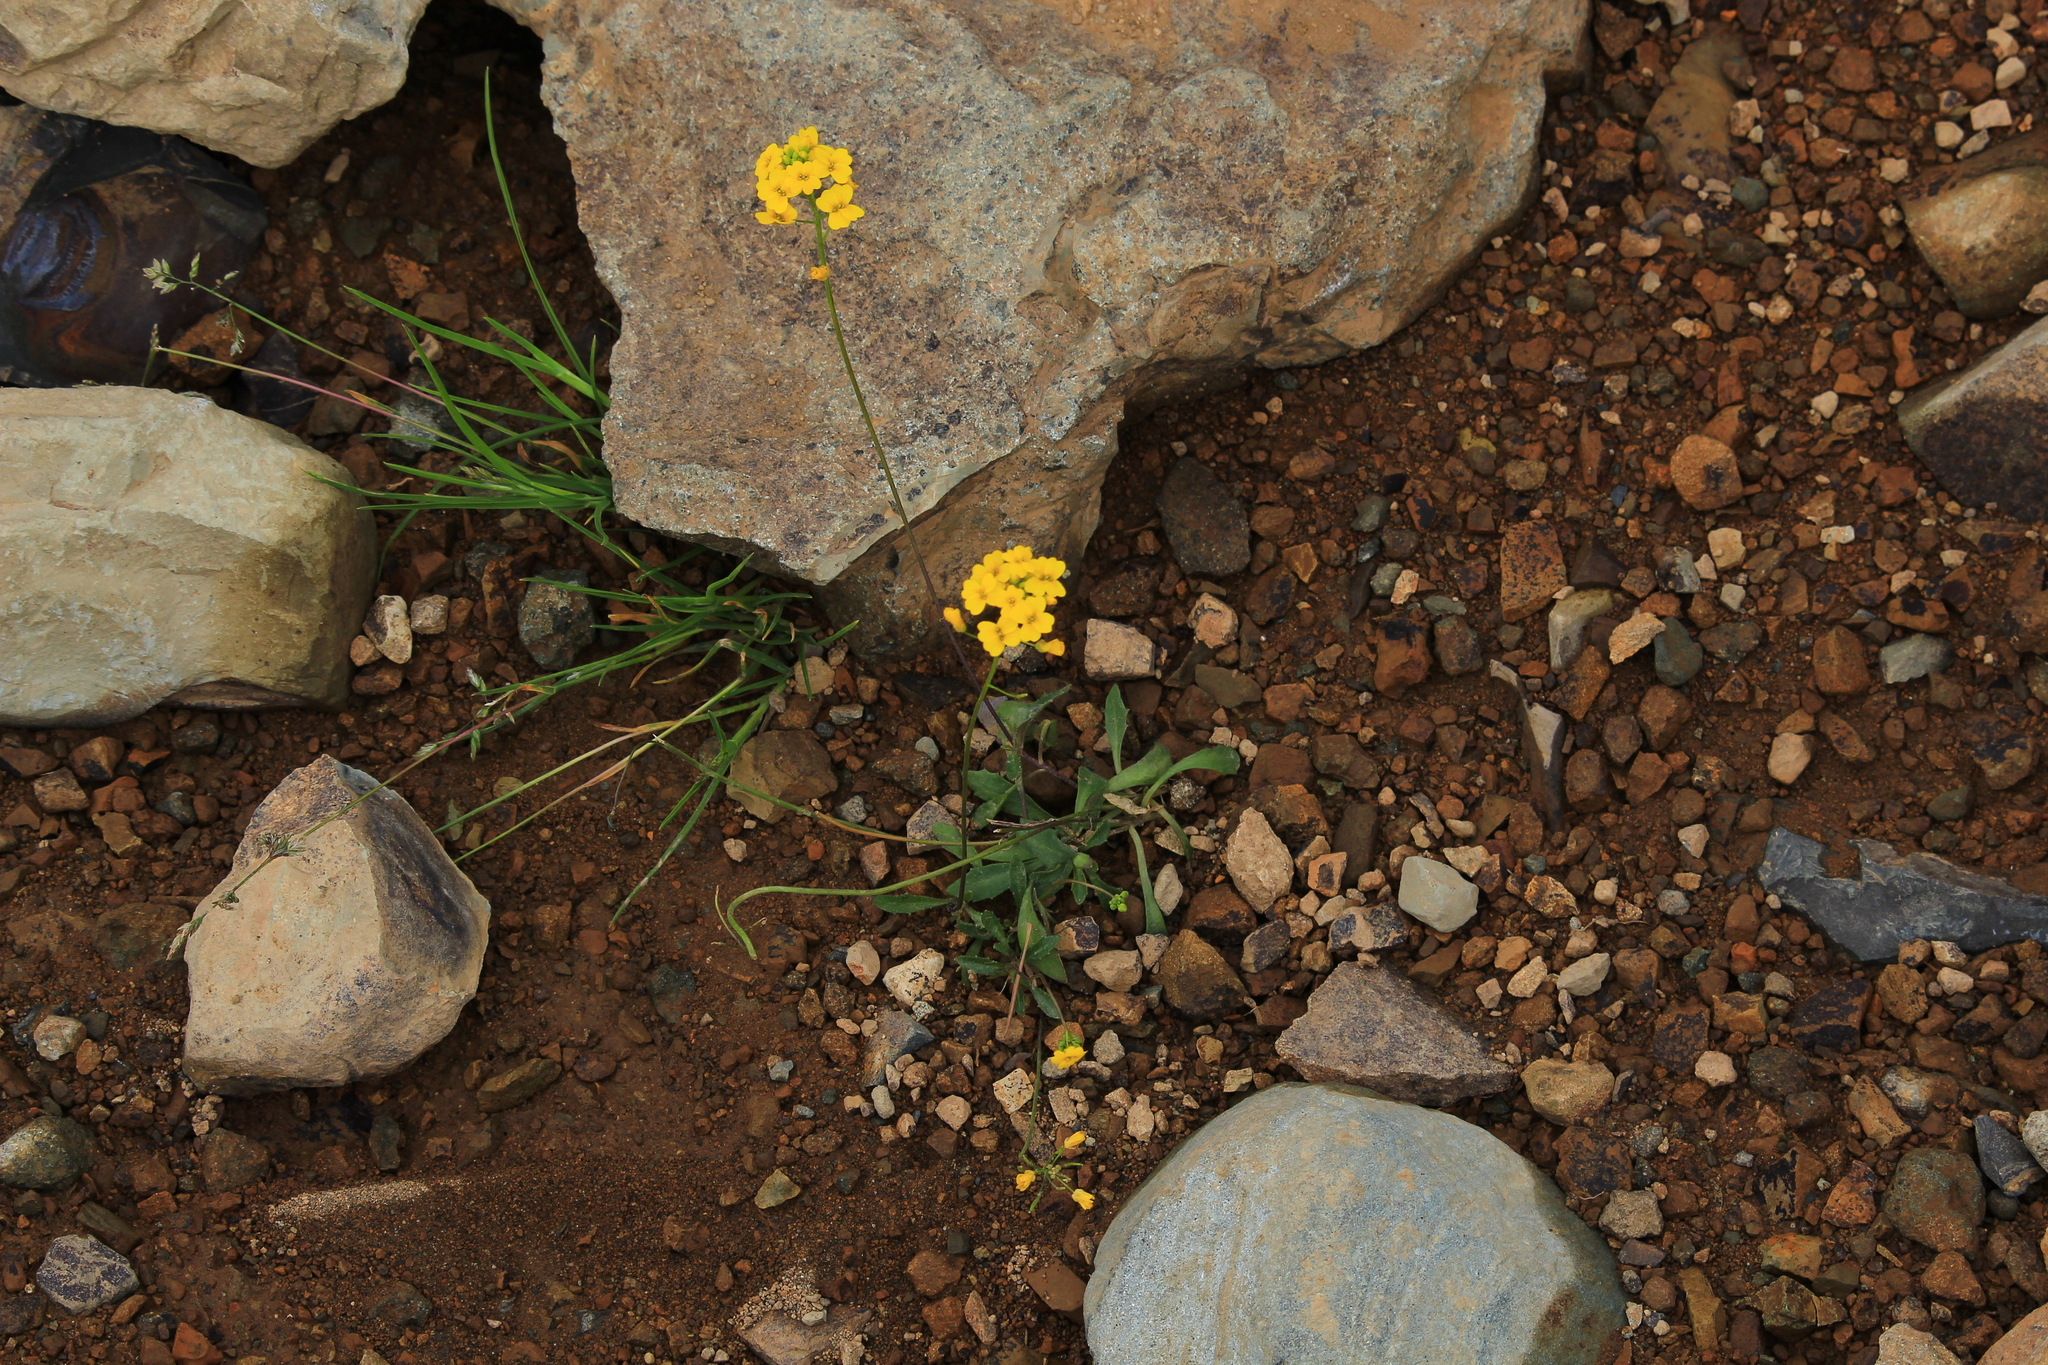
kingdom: Plantae
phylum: Tracheophyta
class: Magnoliopsida
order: Brassicales
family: Brassicaceae
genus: Draba
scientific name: Draba hispida
